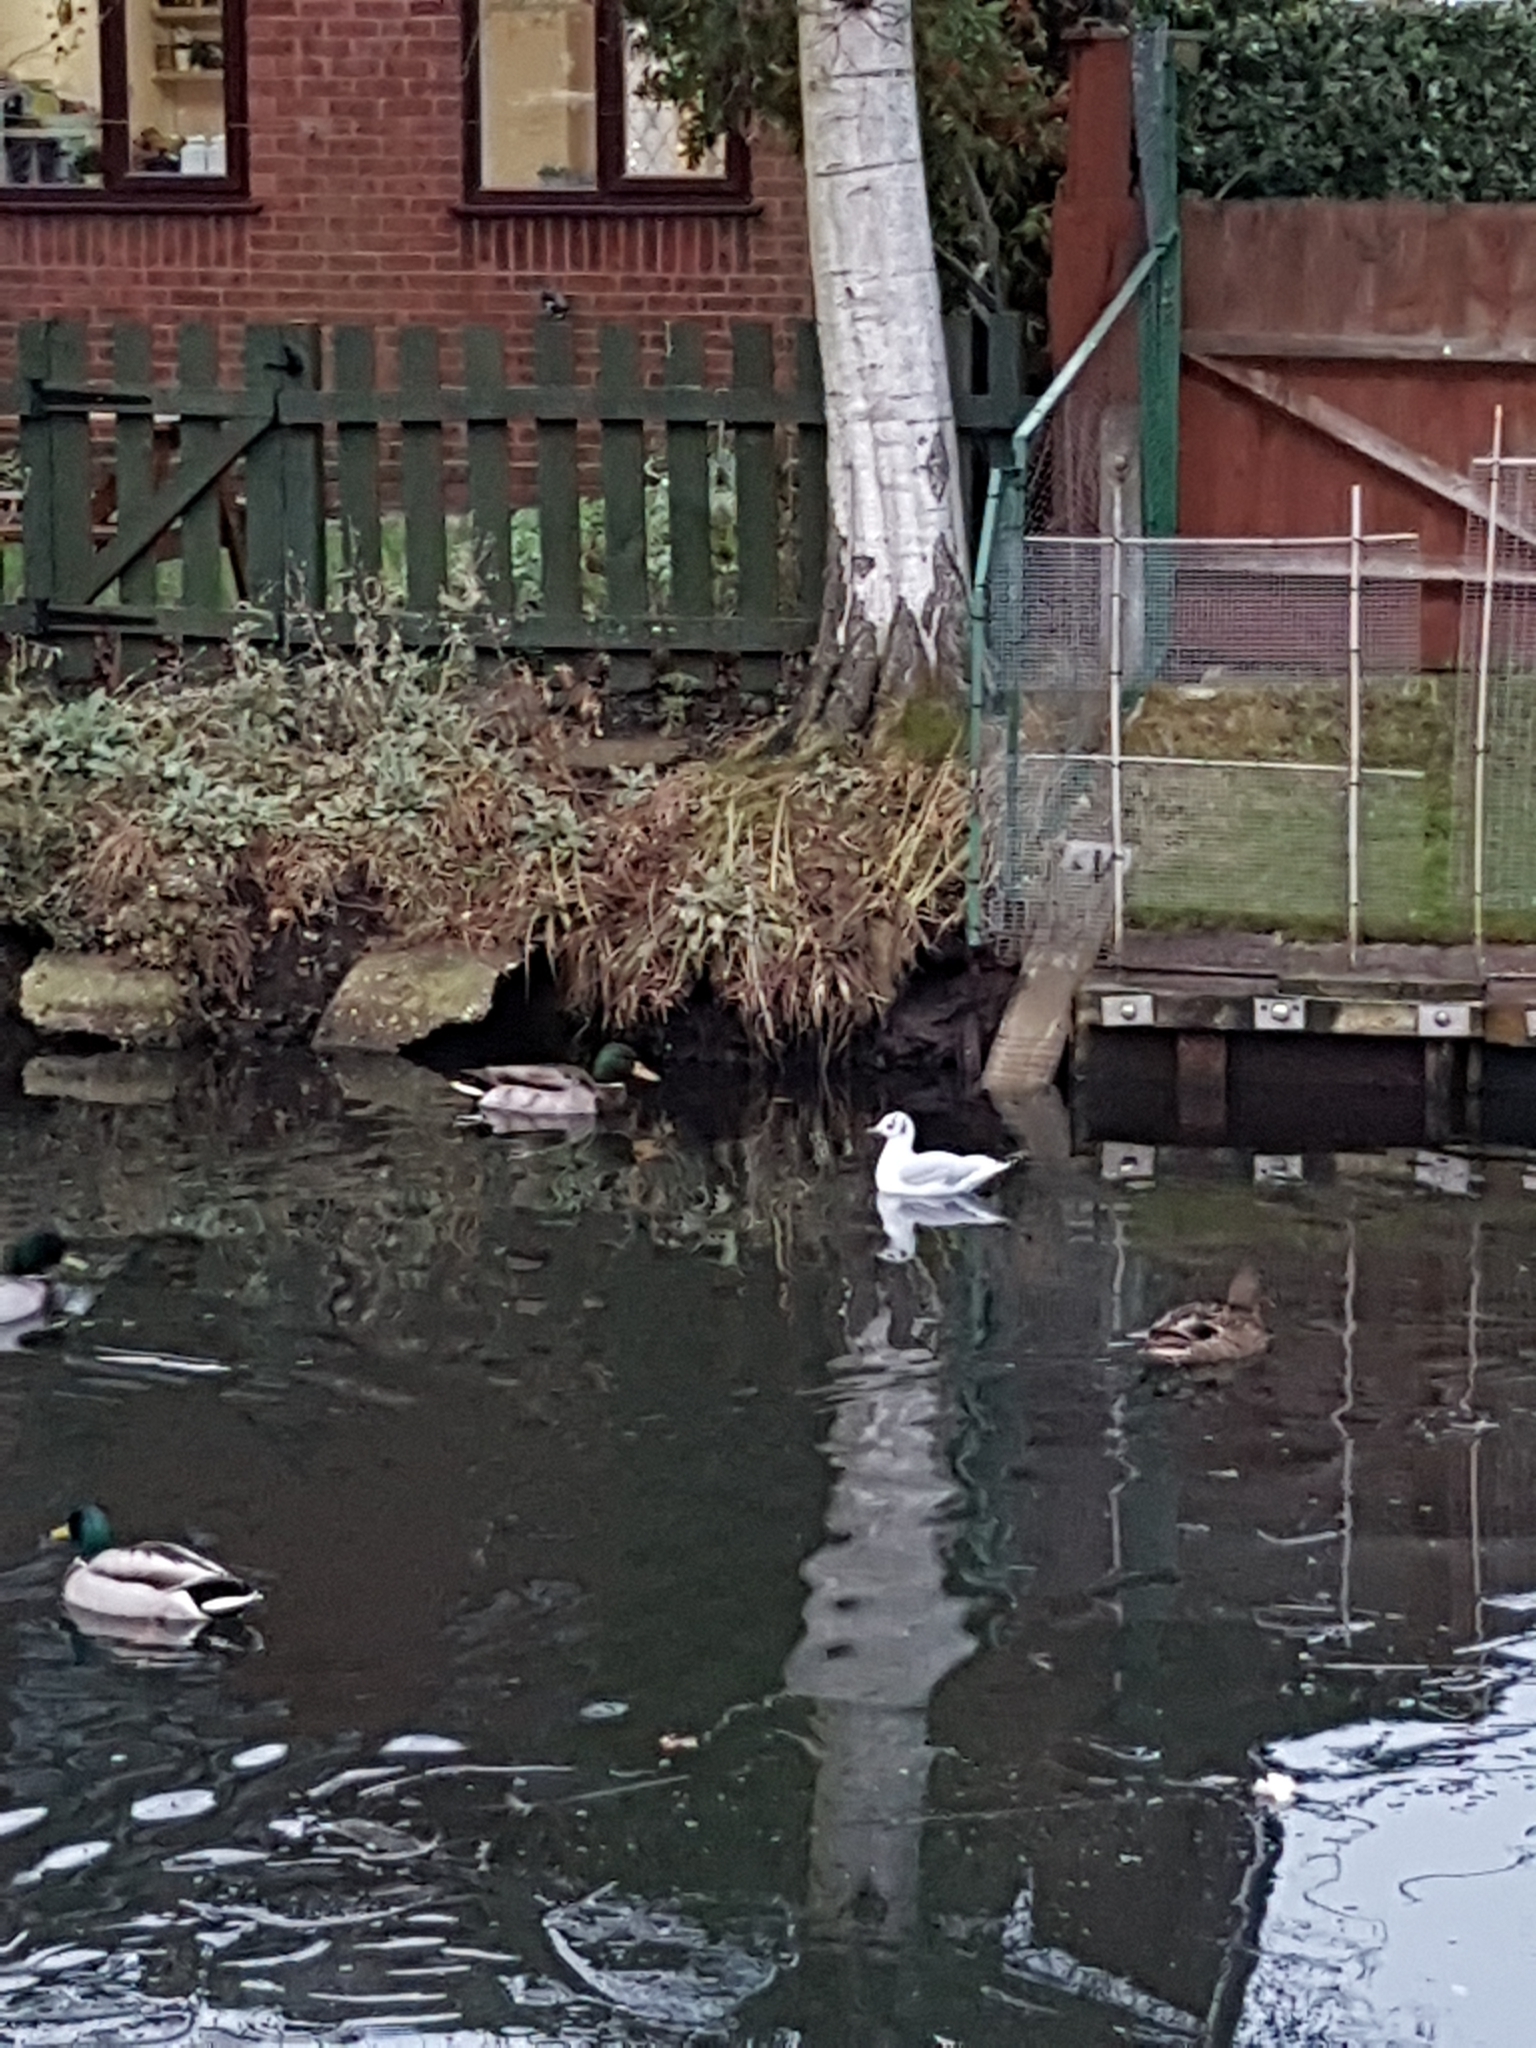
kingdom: Animalia
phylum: Chordata
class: Aves
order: Charadriiformes
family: Laridae
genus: Chroicocephalus
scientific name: Chroicocephalus ridibundus
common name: Black-headed gull
